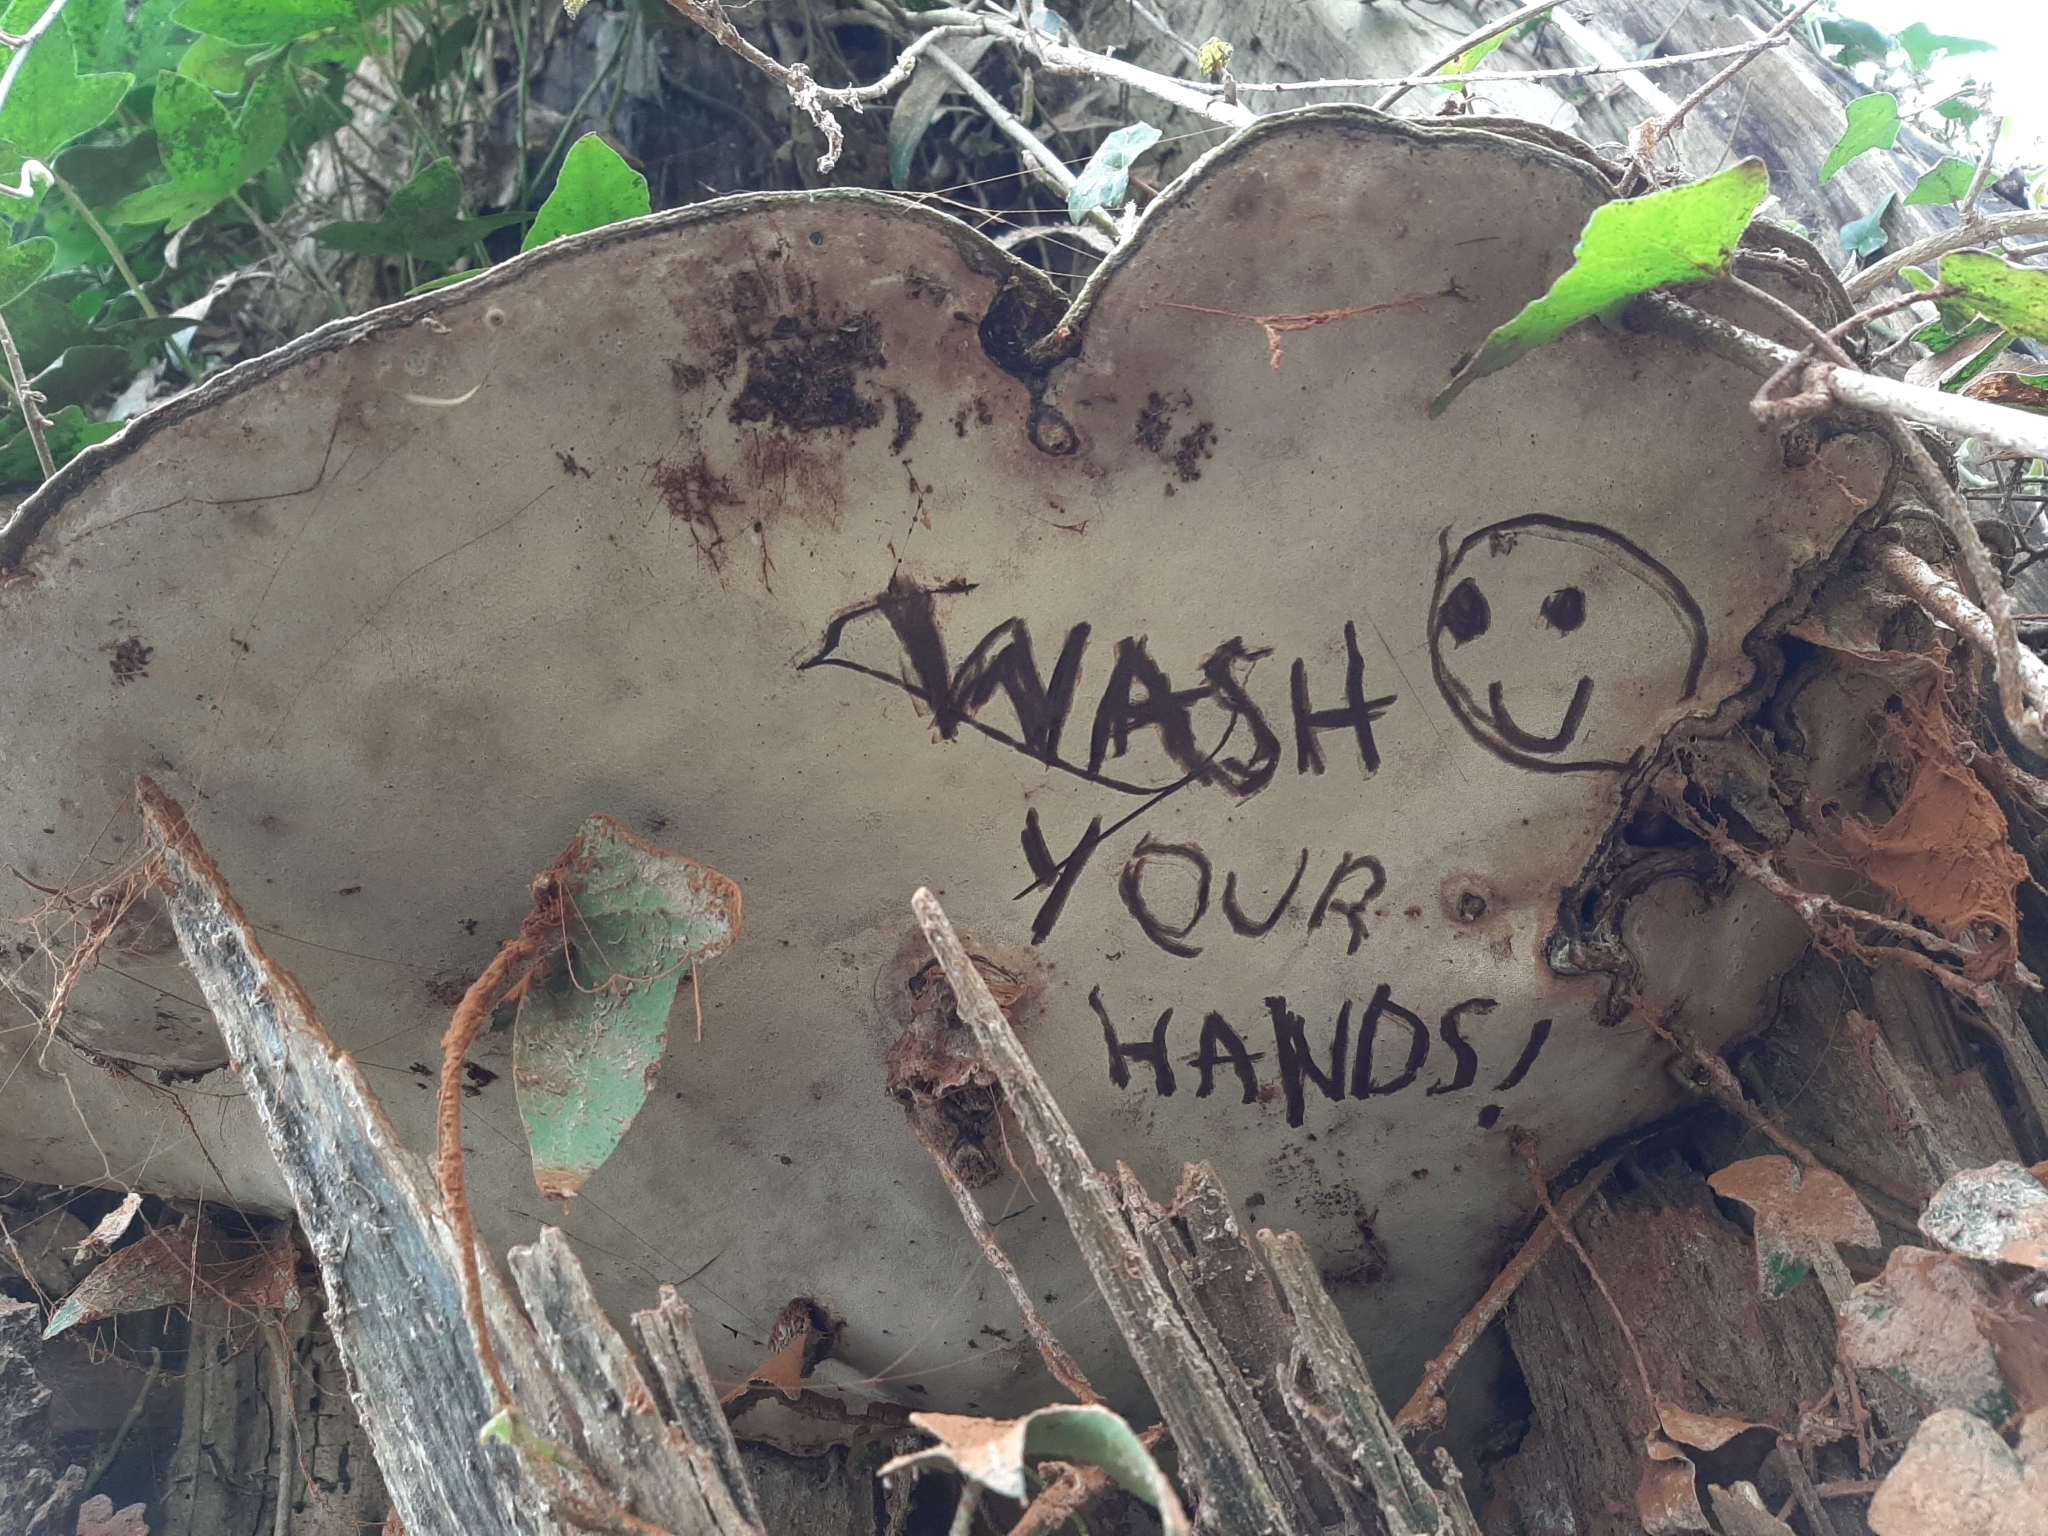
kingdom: Fungi
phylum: Basidiomycota
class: Agaricomycetes
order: Polyporales
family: Polyporaceae
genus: Ganoderma
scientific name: Ganoderma applanatum
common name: Artist's bracket
